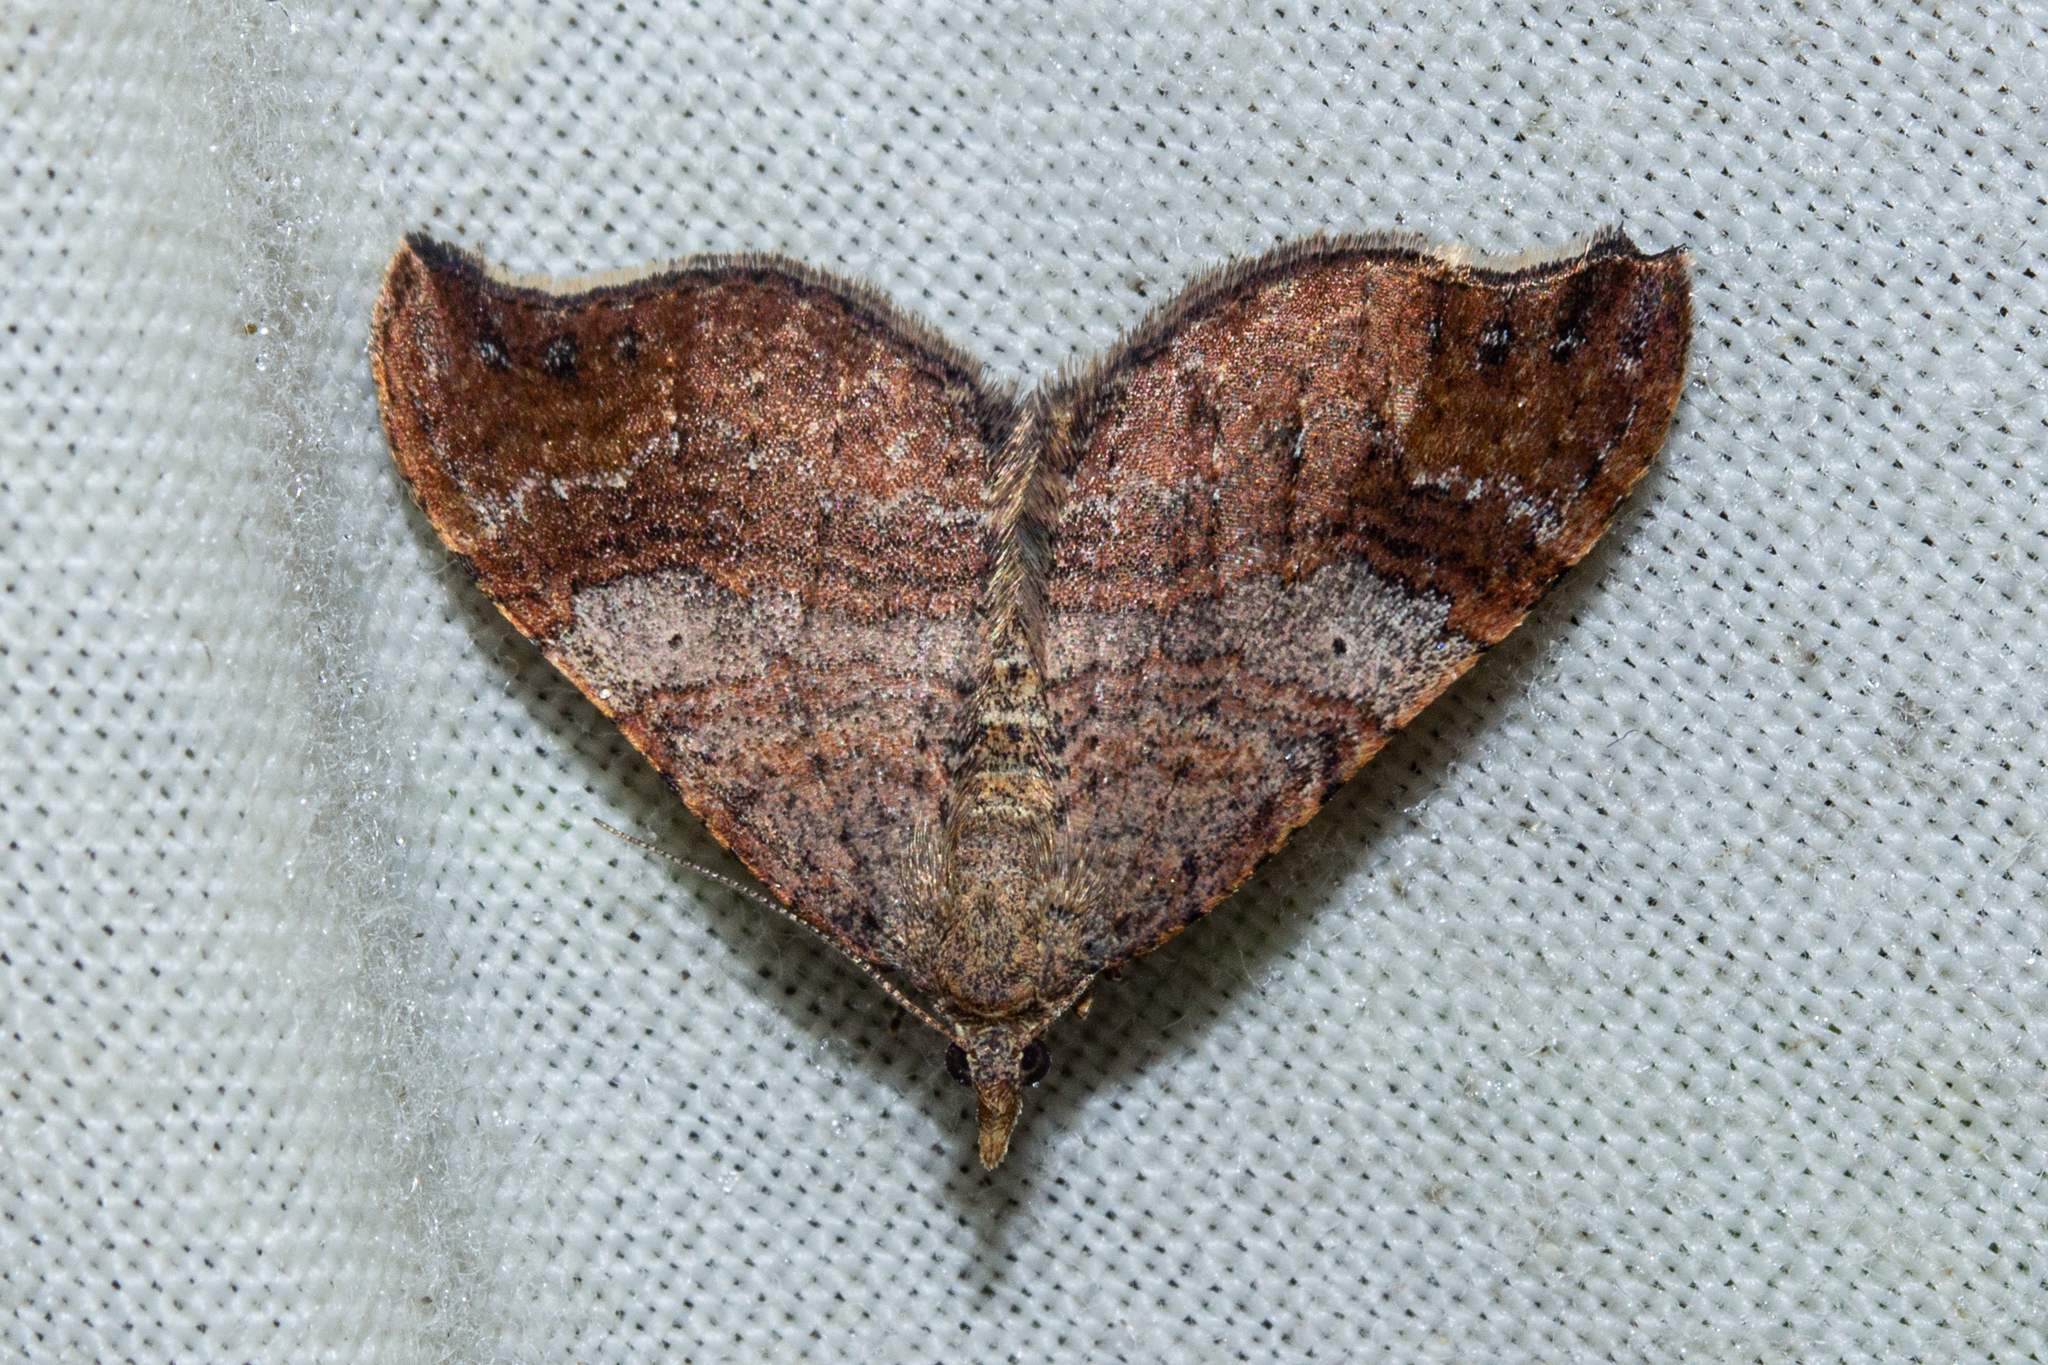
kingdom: Animalia
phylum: Arthropoda
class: Insecta
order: Lepidoptera
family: Geometridae
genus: Homodotis
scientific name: Homodotis megaspilata
